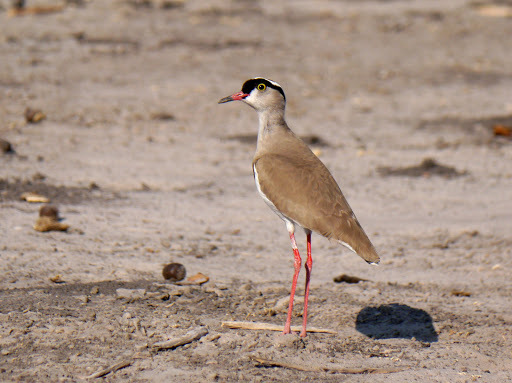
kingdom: Animalia
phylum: Chordata
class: Aves
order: Charadriiformes
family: Charadriidae
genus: Vanellus
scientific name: Vanellus coronatus
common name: Crowned lapwing
